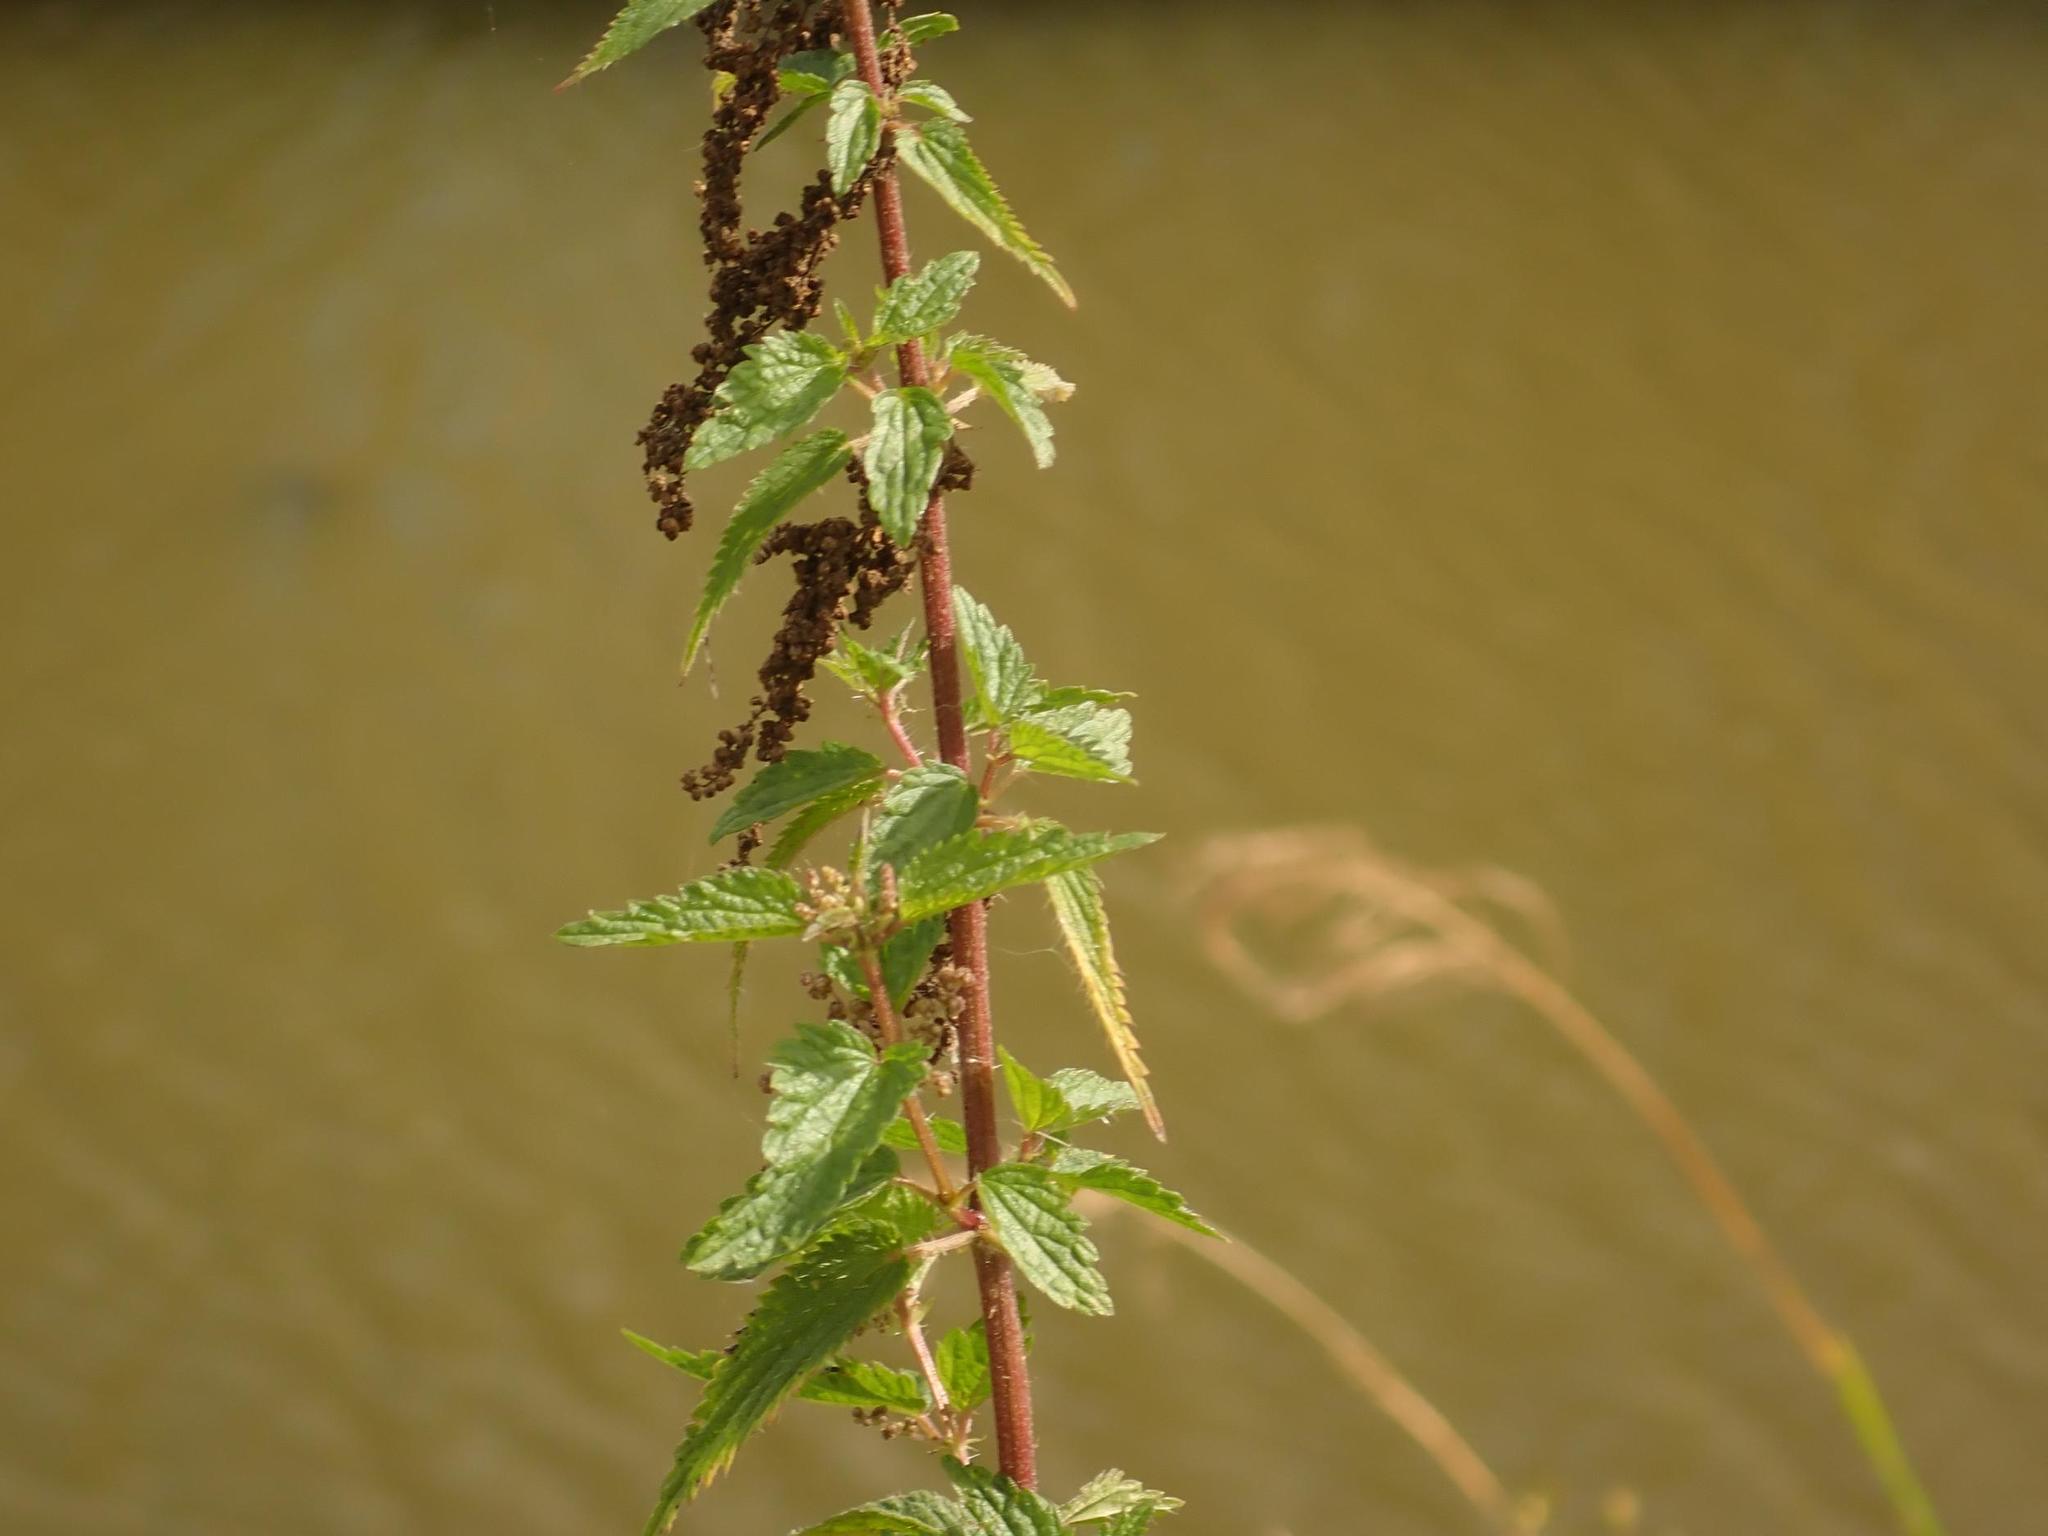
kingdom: Plantae
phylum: Tracheophyta
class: Magnoliopsida
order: Rosales
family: Urticaceae
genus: Urtica
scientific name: Urtica dioica
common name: Common nettle
